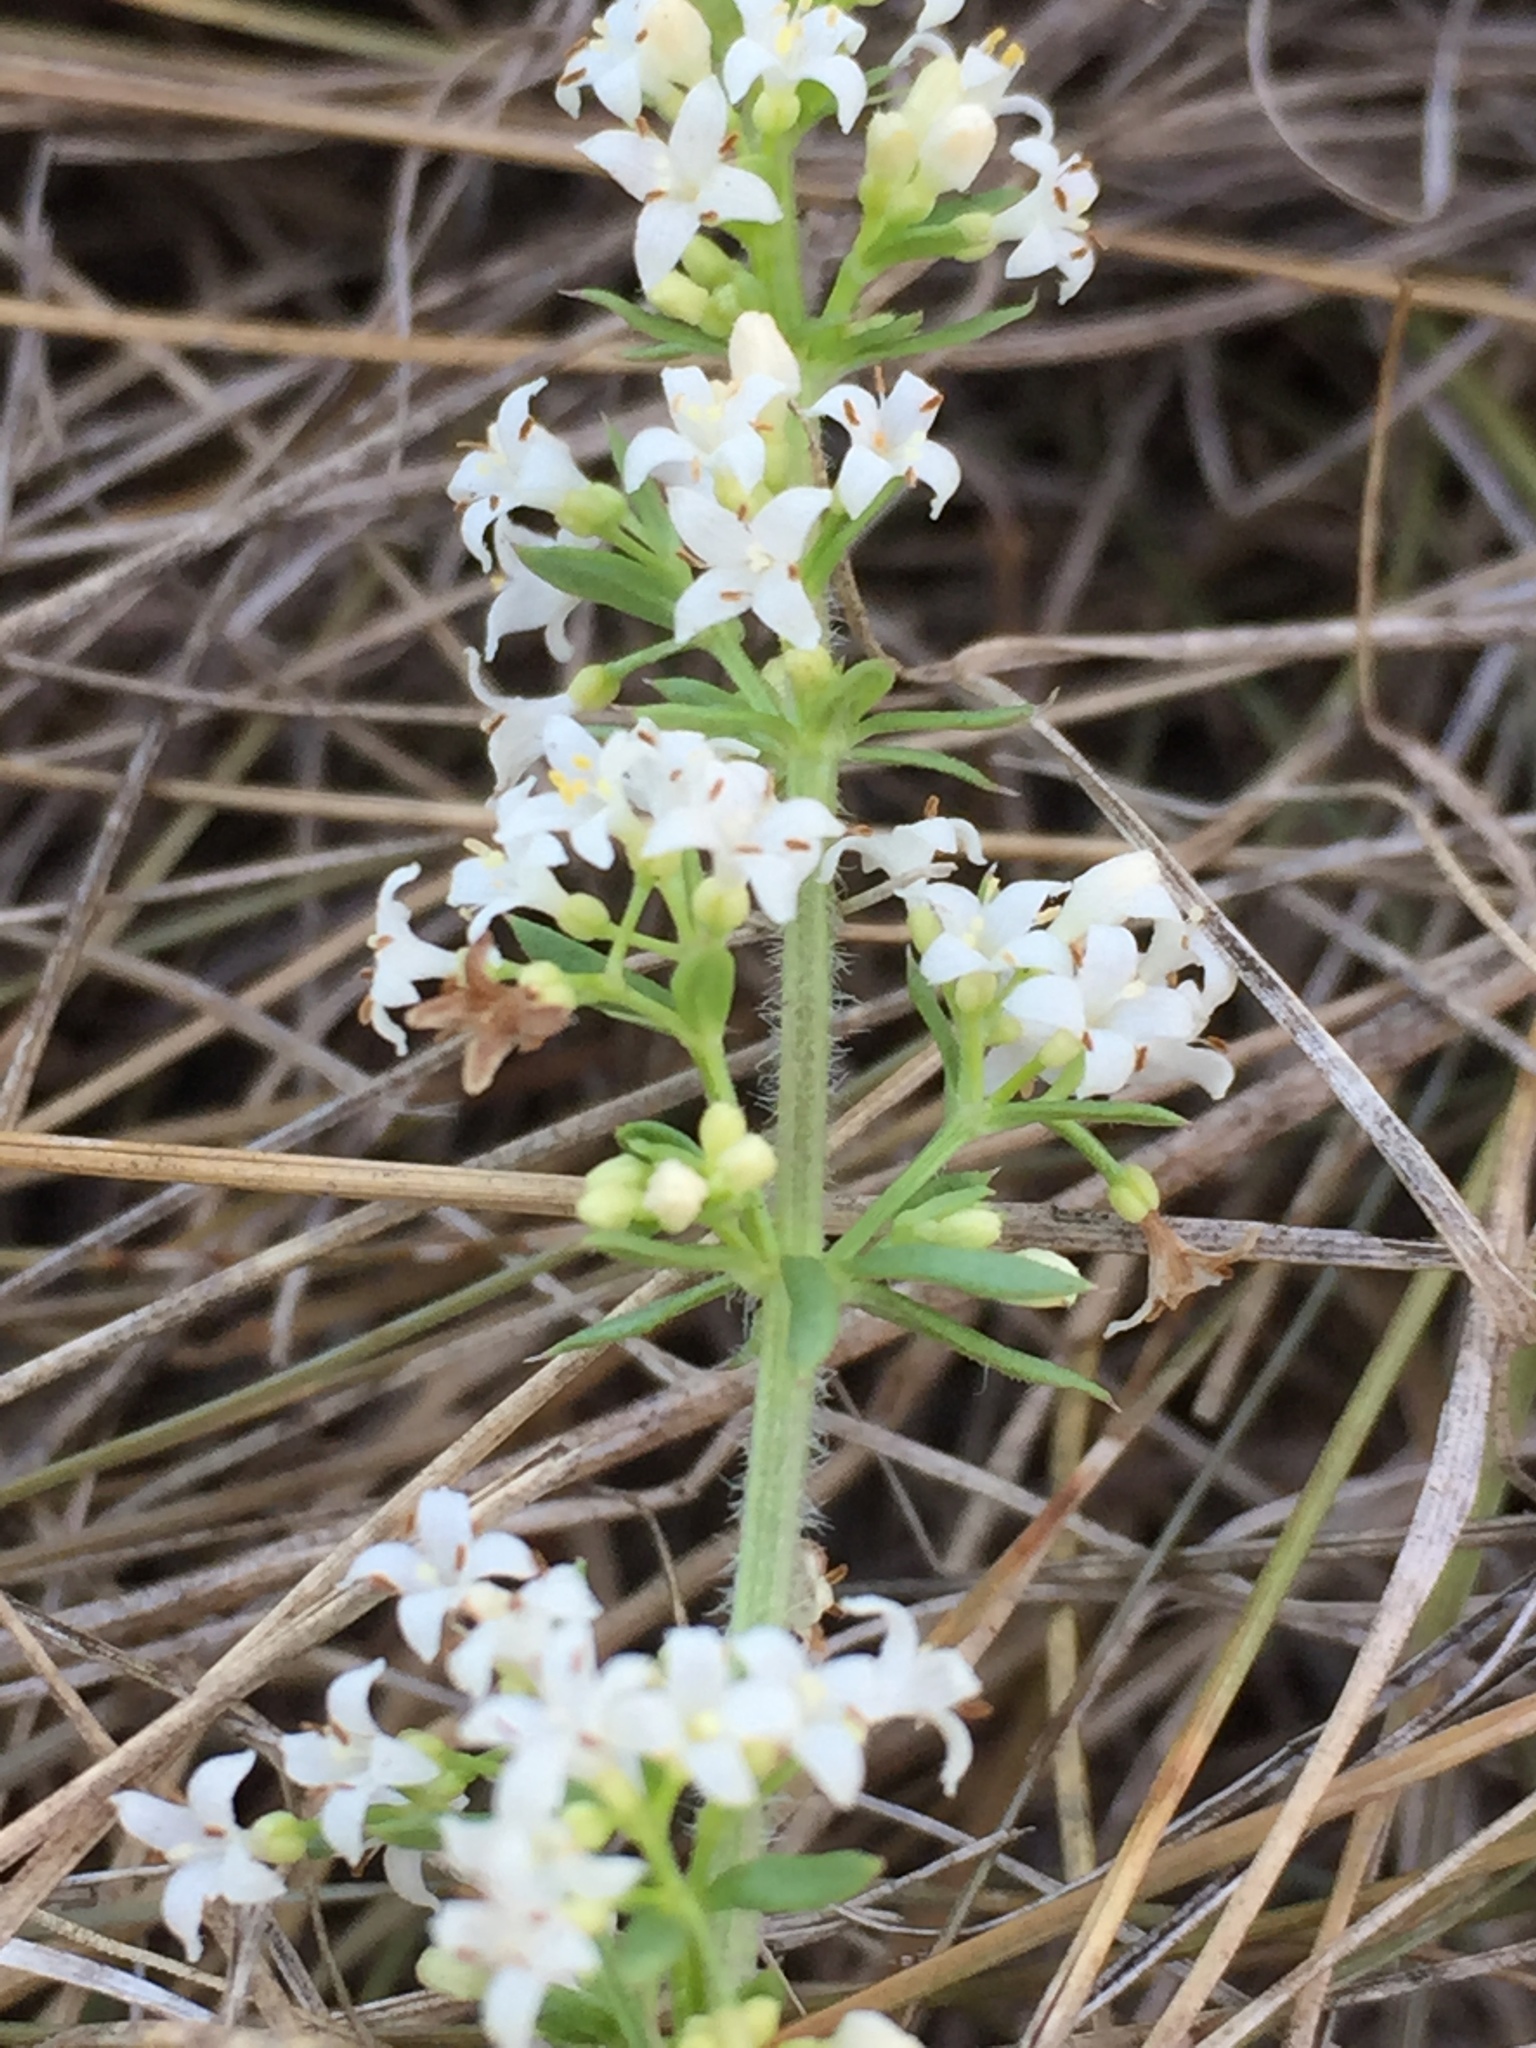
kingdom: Plantae
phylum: Tracheophyta
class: Magnoliopsida
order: Gentianales
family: Rubiaceae
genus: Galium
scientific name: Galium humifusum
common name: Spreading bedstraw
